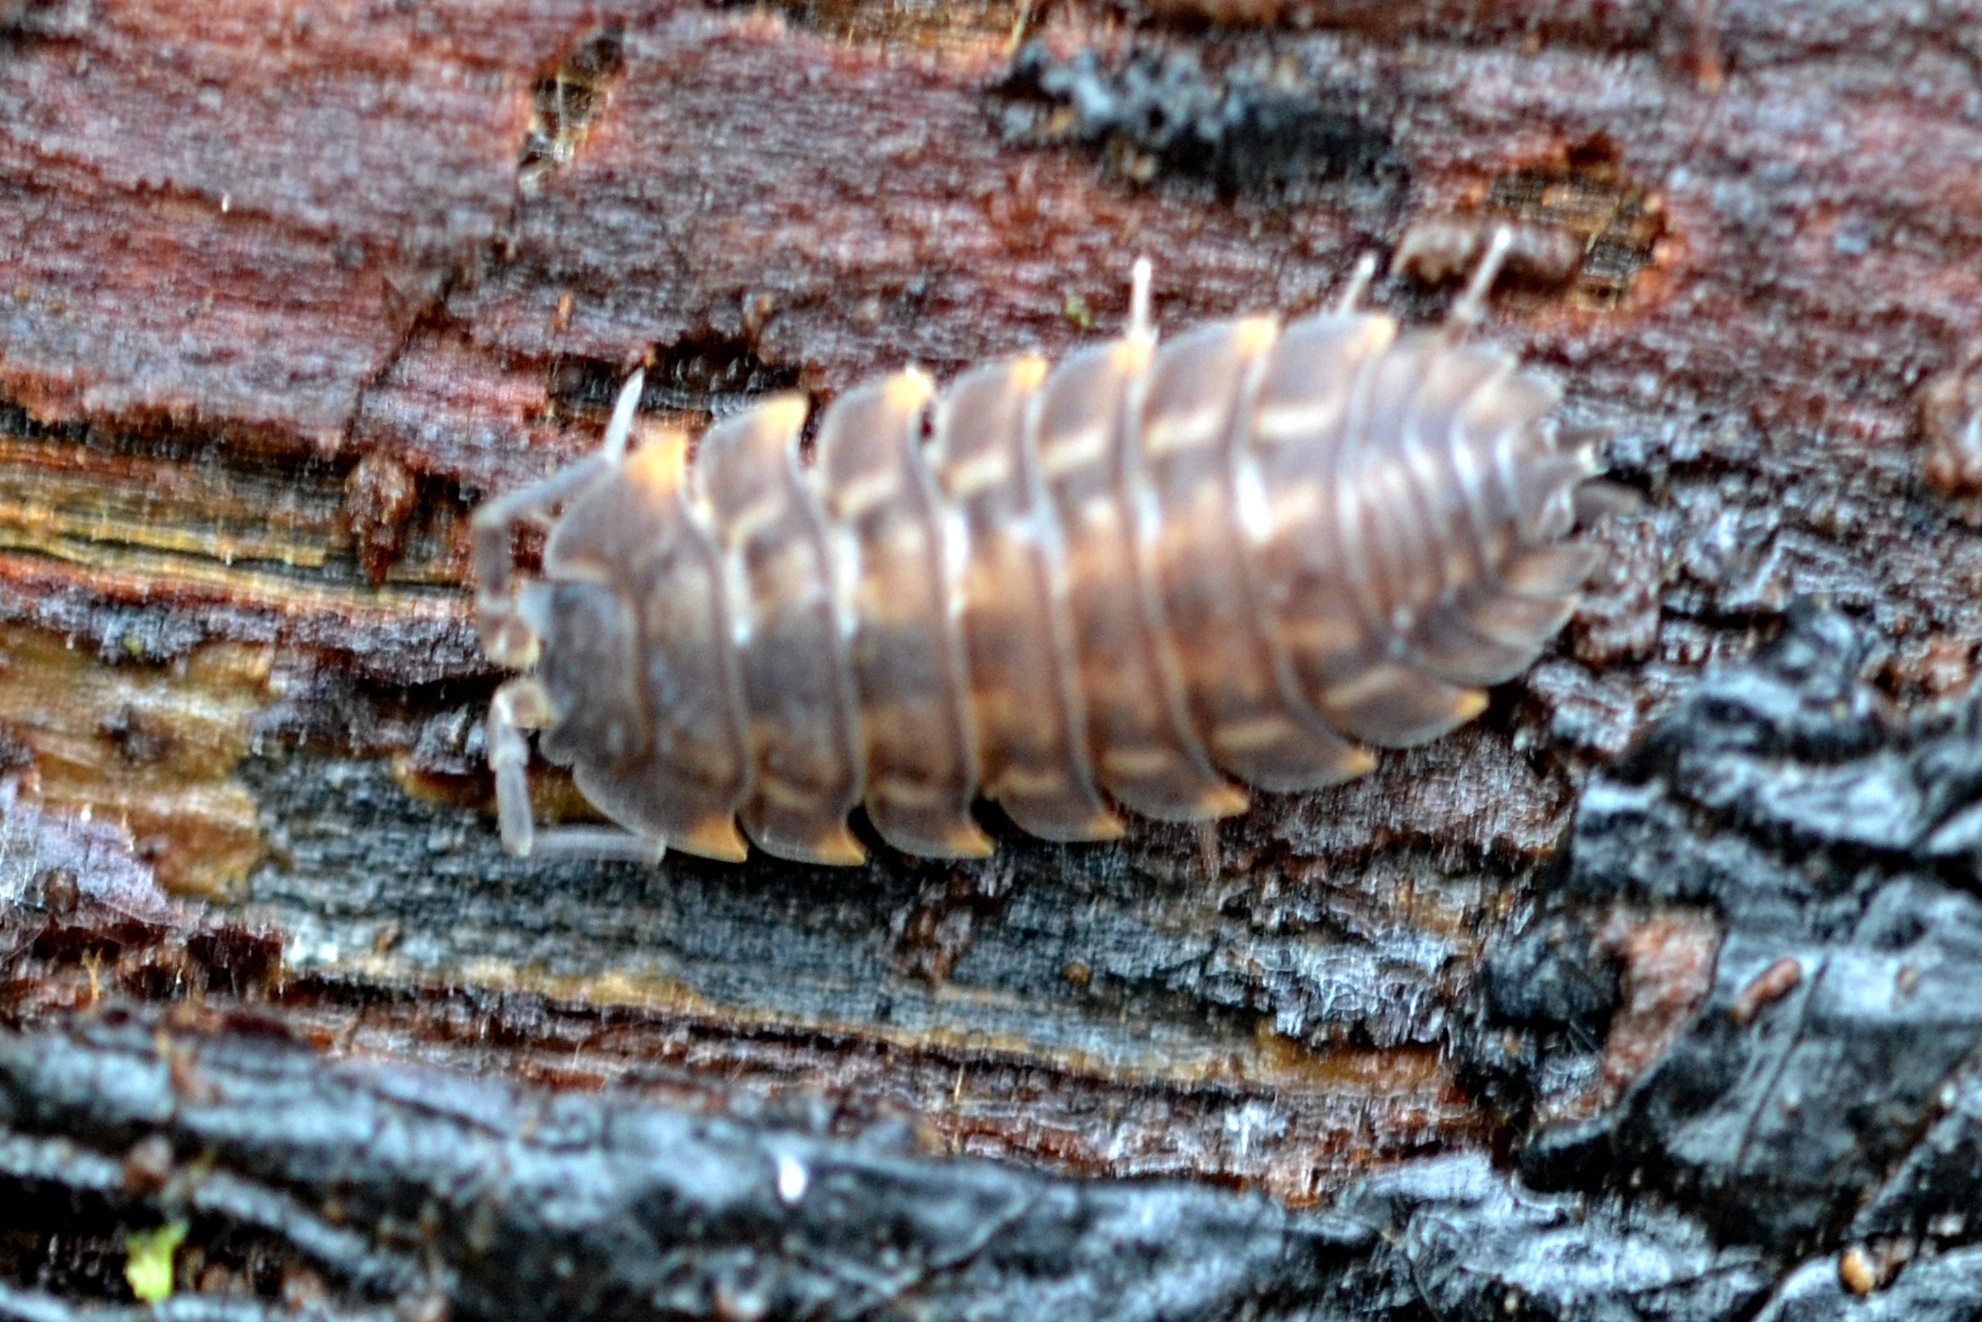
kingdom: Animalia
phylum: Arthropoda
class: Malacostraca
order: Isopoda
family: Trachelipodidae
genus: Trachelipus
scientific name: Trachelipus ratzeburgii
